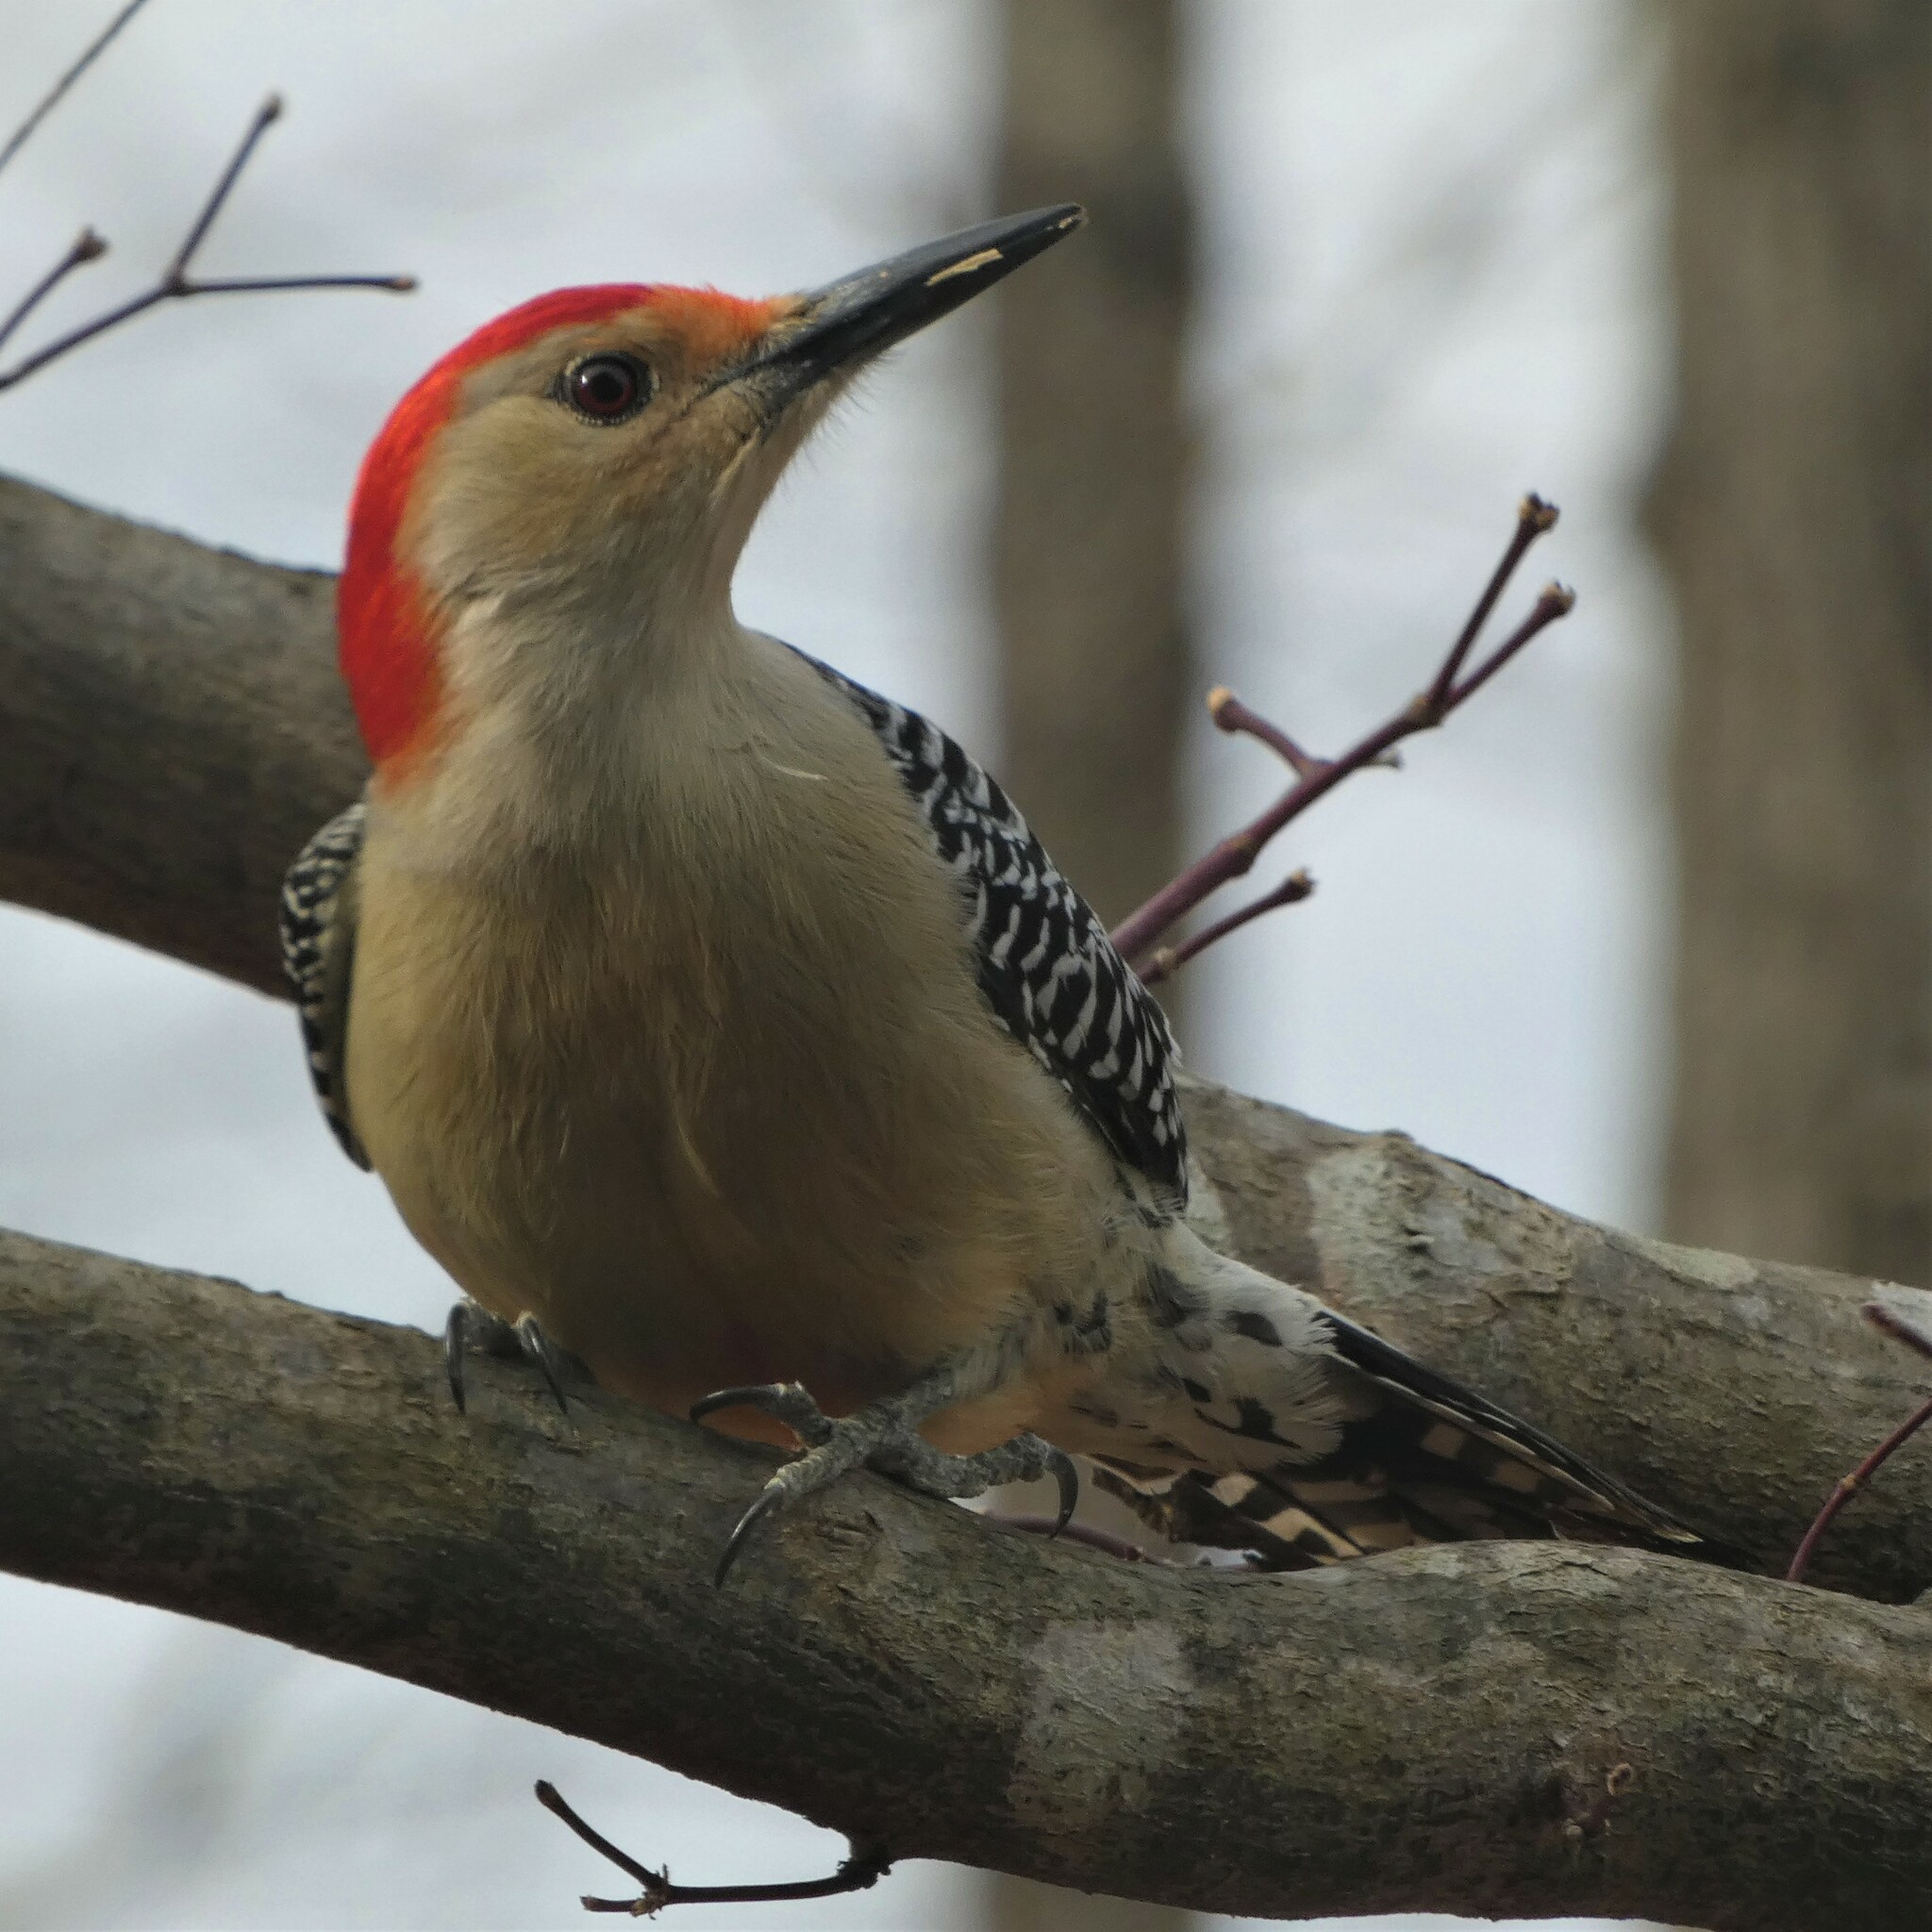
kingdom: Animalia
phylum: Chordata
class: Aves
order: Piciformes
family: Picidae
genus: Melanerpes
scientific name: Melanerpes carolinus
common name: Red-bellied woodpecker
